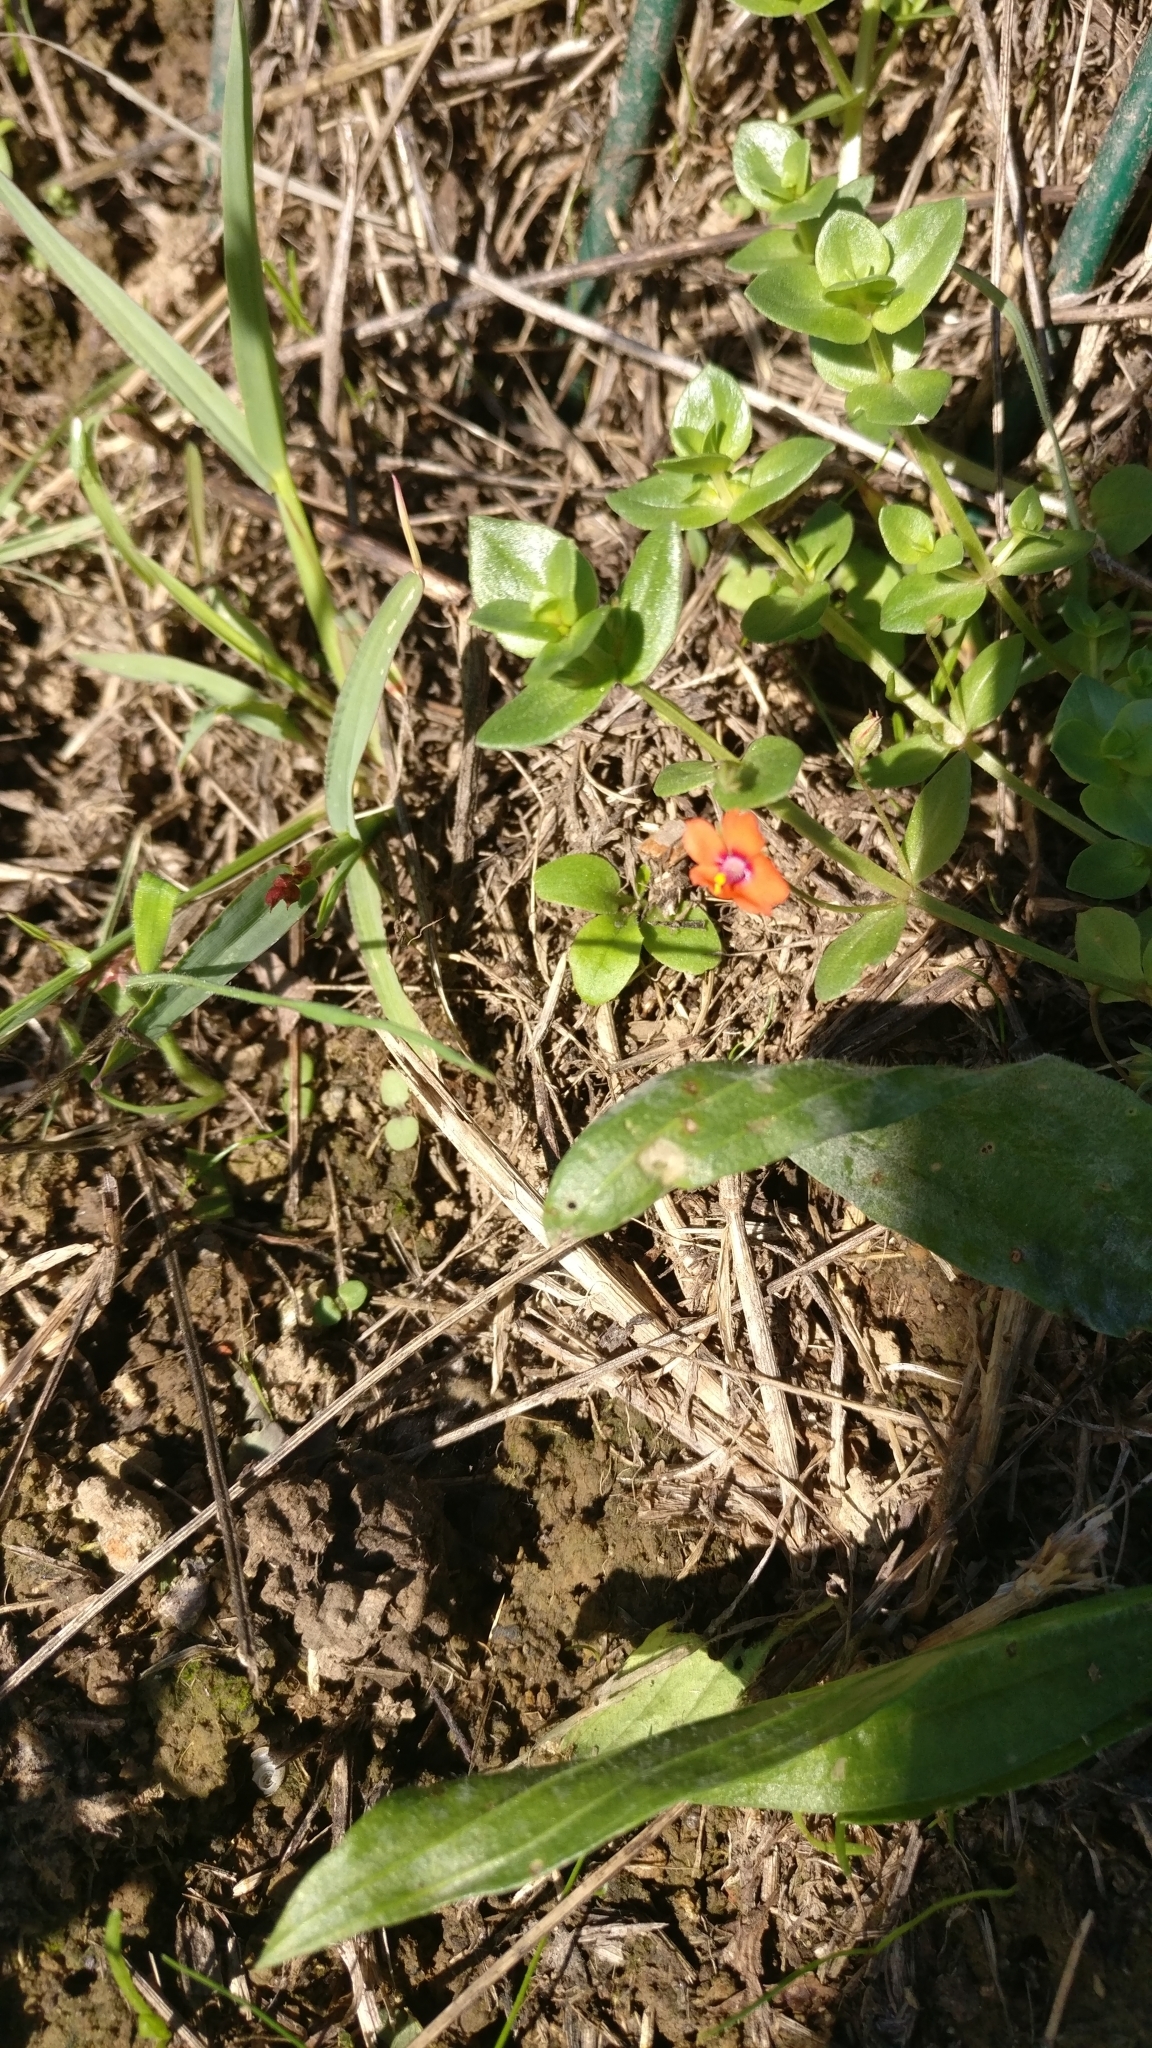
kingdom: Plantae
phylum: Tracheophyta
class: Magnoliopsida
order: Ericales
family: Primulaceae
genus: Lysimachia
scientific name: Lysimachia arvensis
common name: Scarlet pimpernel
